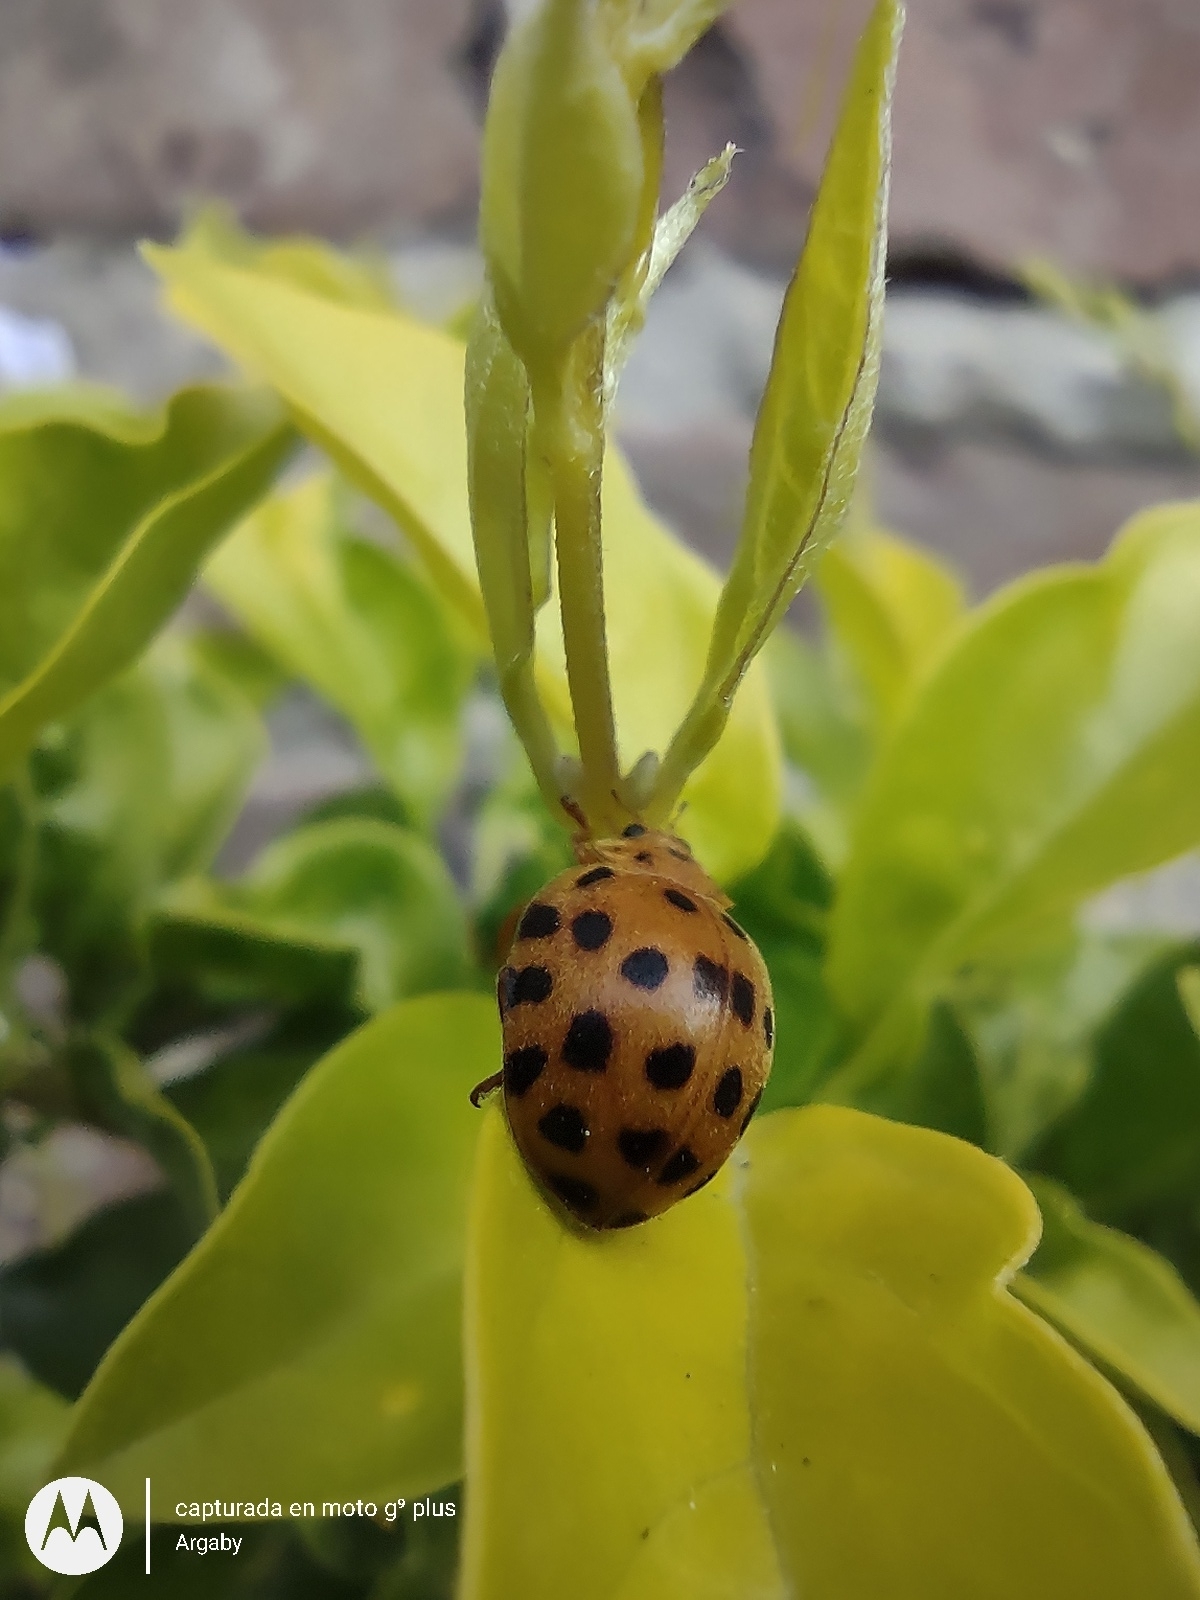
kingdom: Animalia
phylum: Arthropoda
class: Insecta
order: Coleoptera
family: Coccinellidae
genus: Henosepilachna
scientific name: Henosepilachna vigintioctopunctata
